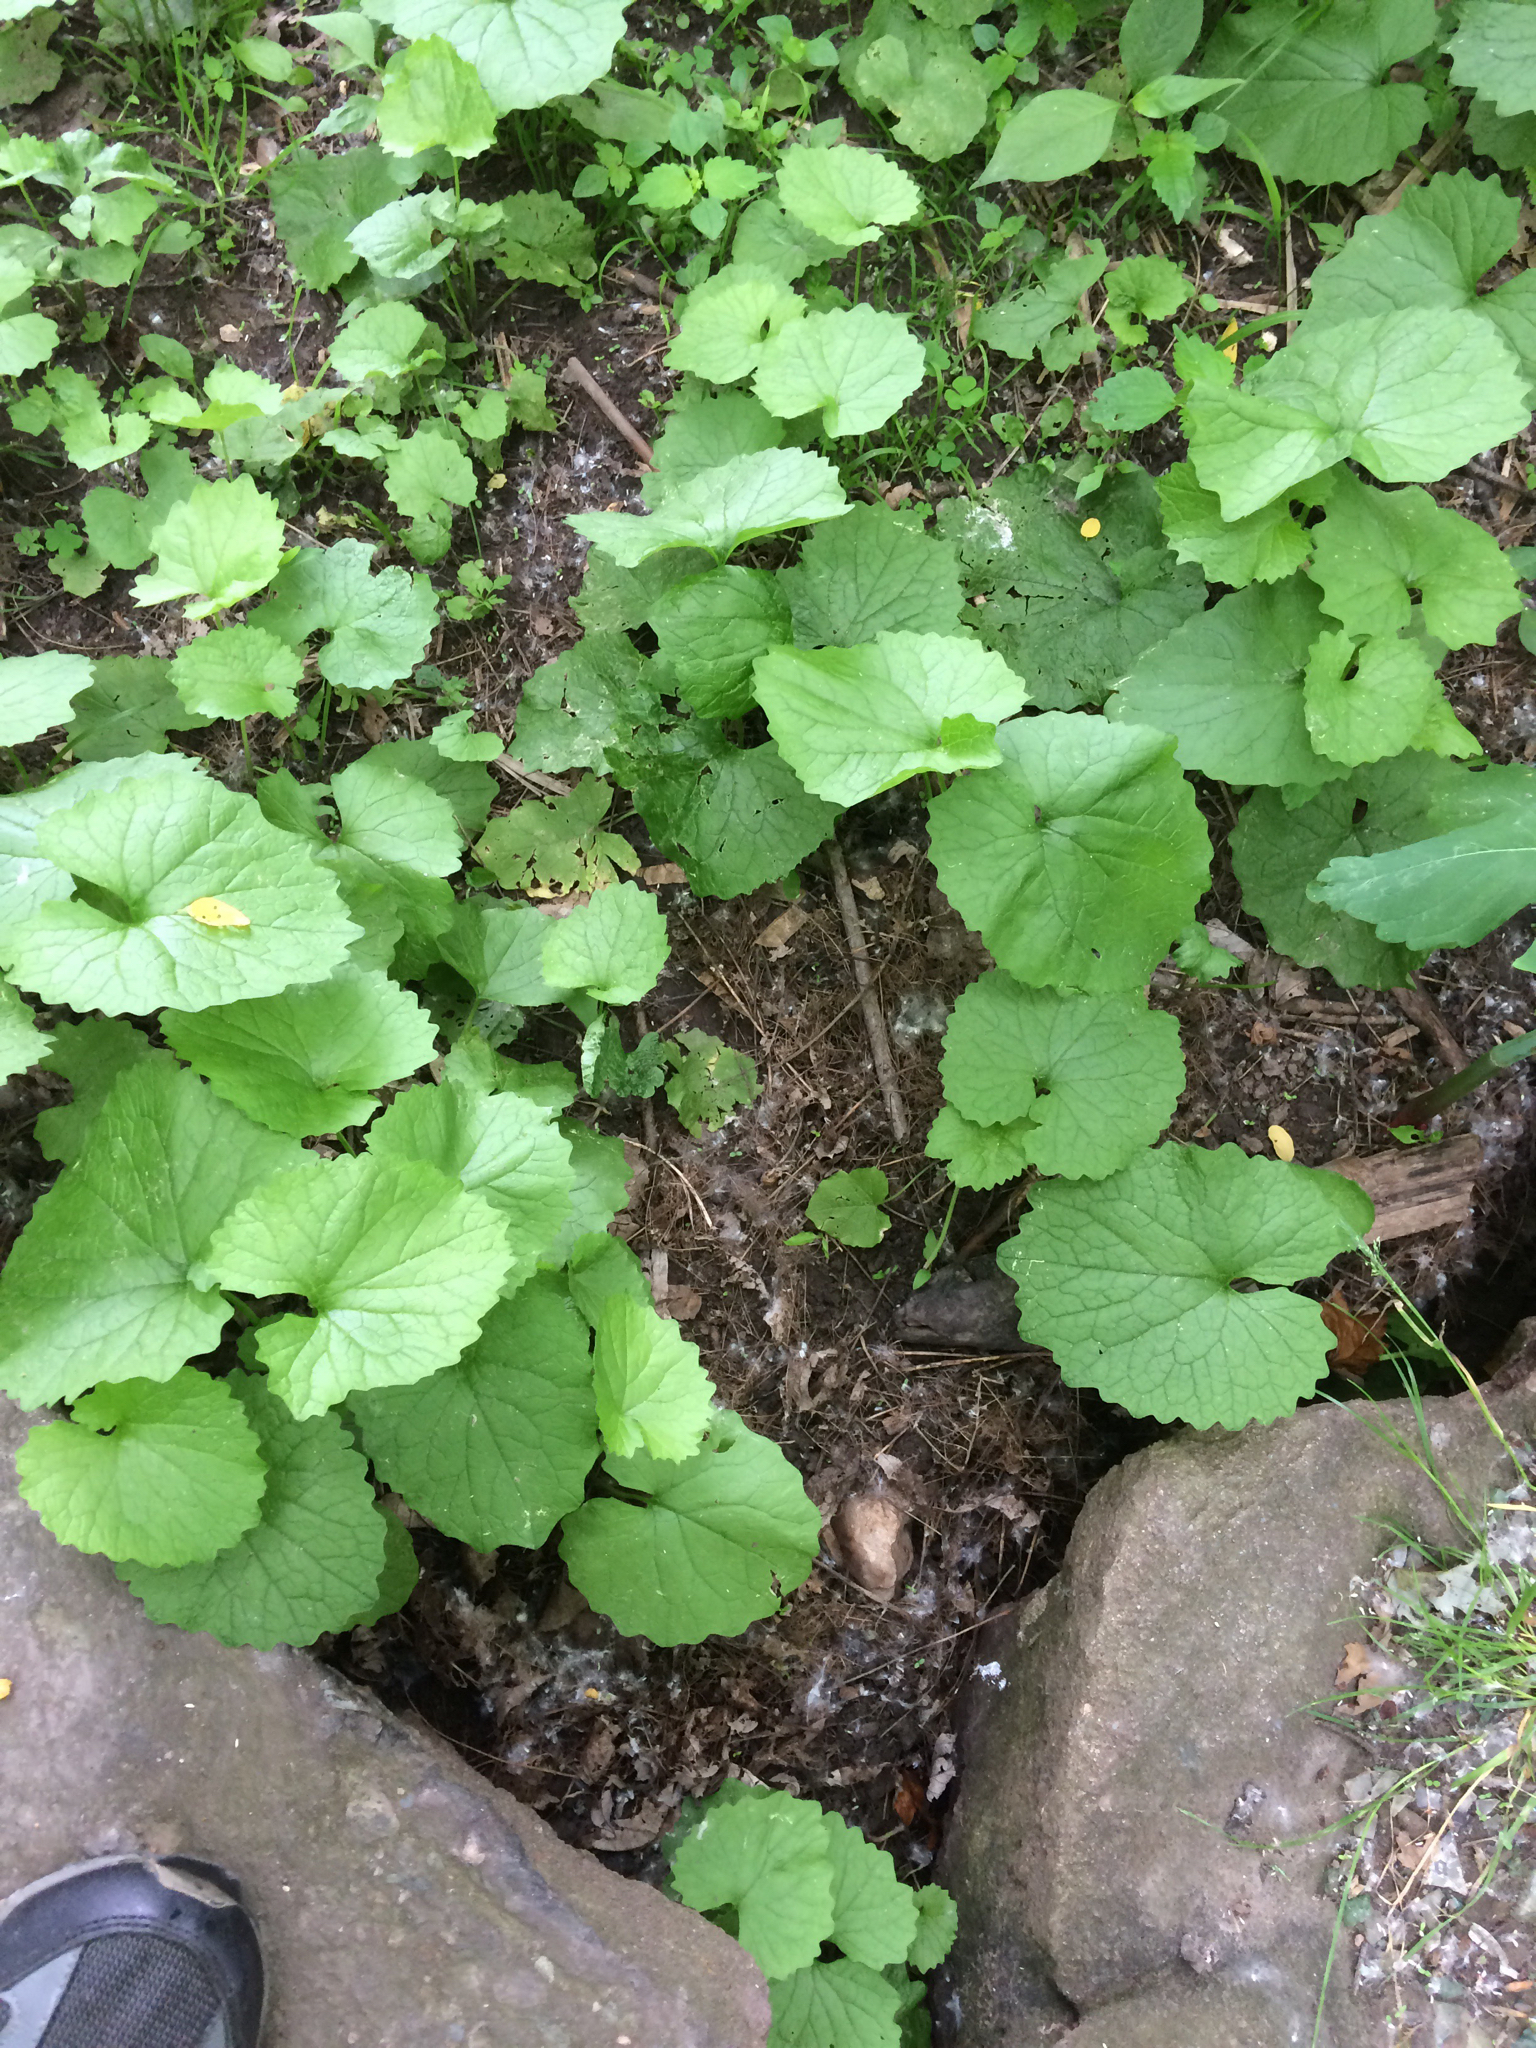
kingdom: Plantae
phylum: Tracheophyta
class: Magnoliopsida
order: Brassicales
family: Brassicaceae
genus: Alliaria
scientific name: Alliaria petiolata
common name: Garlic mustard
